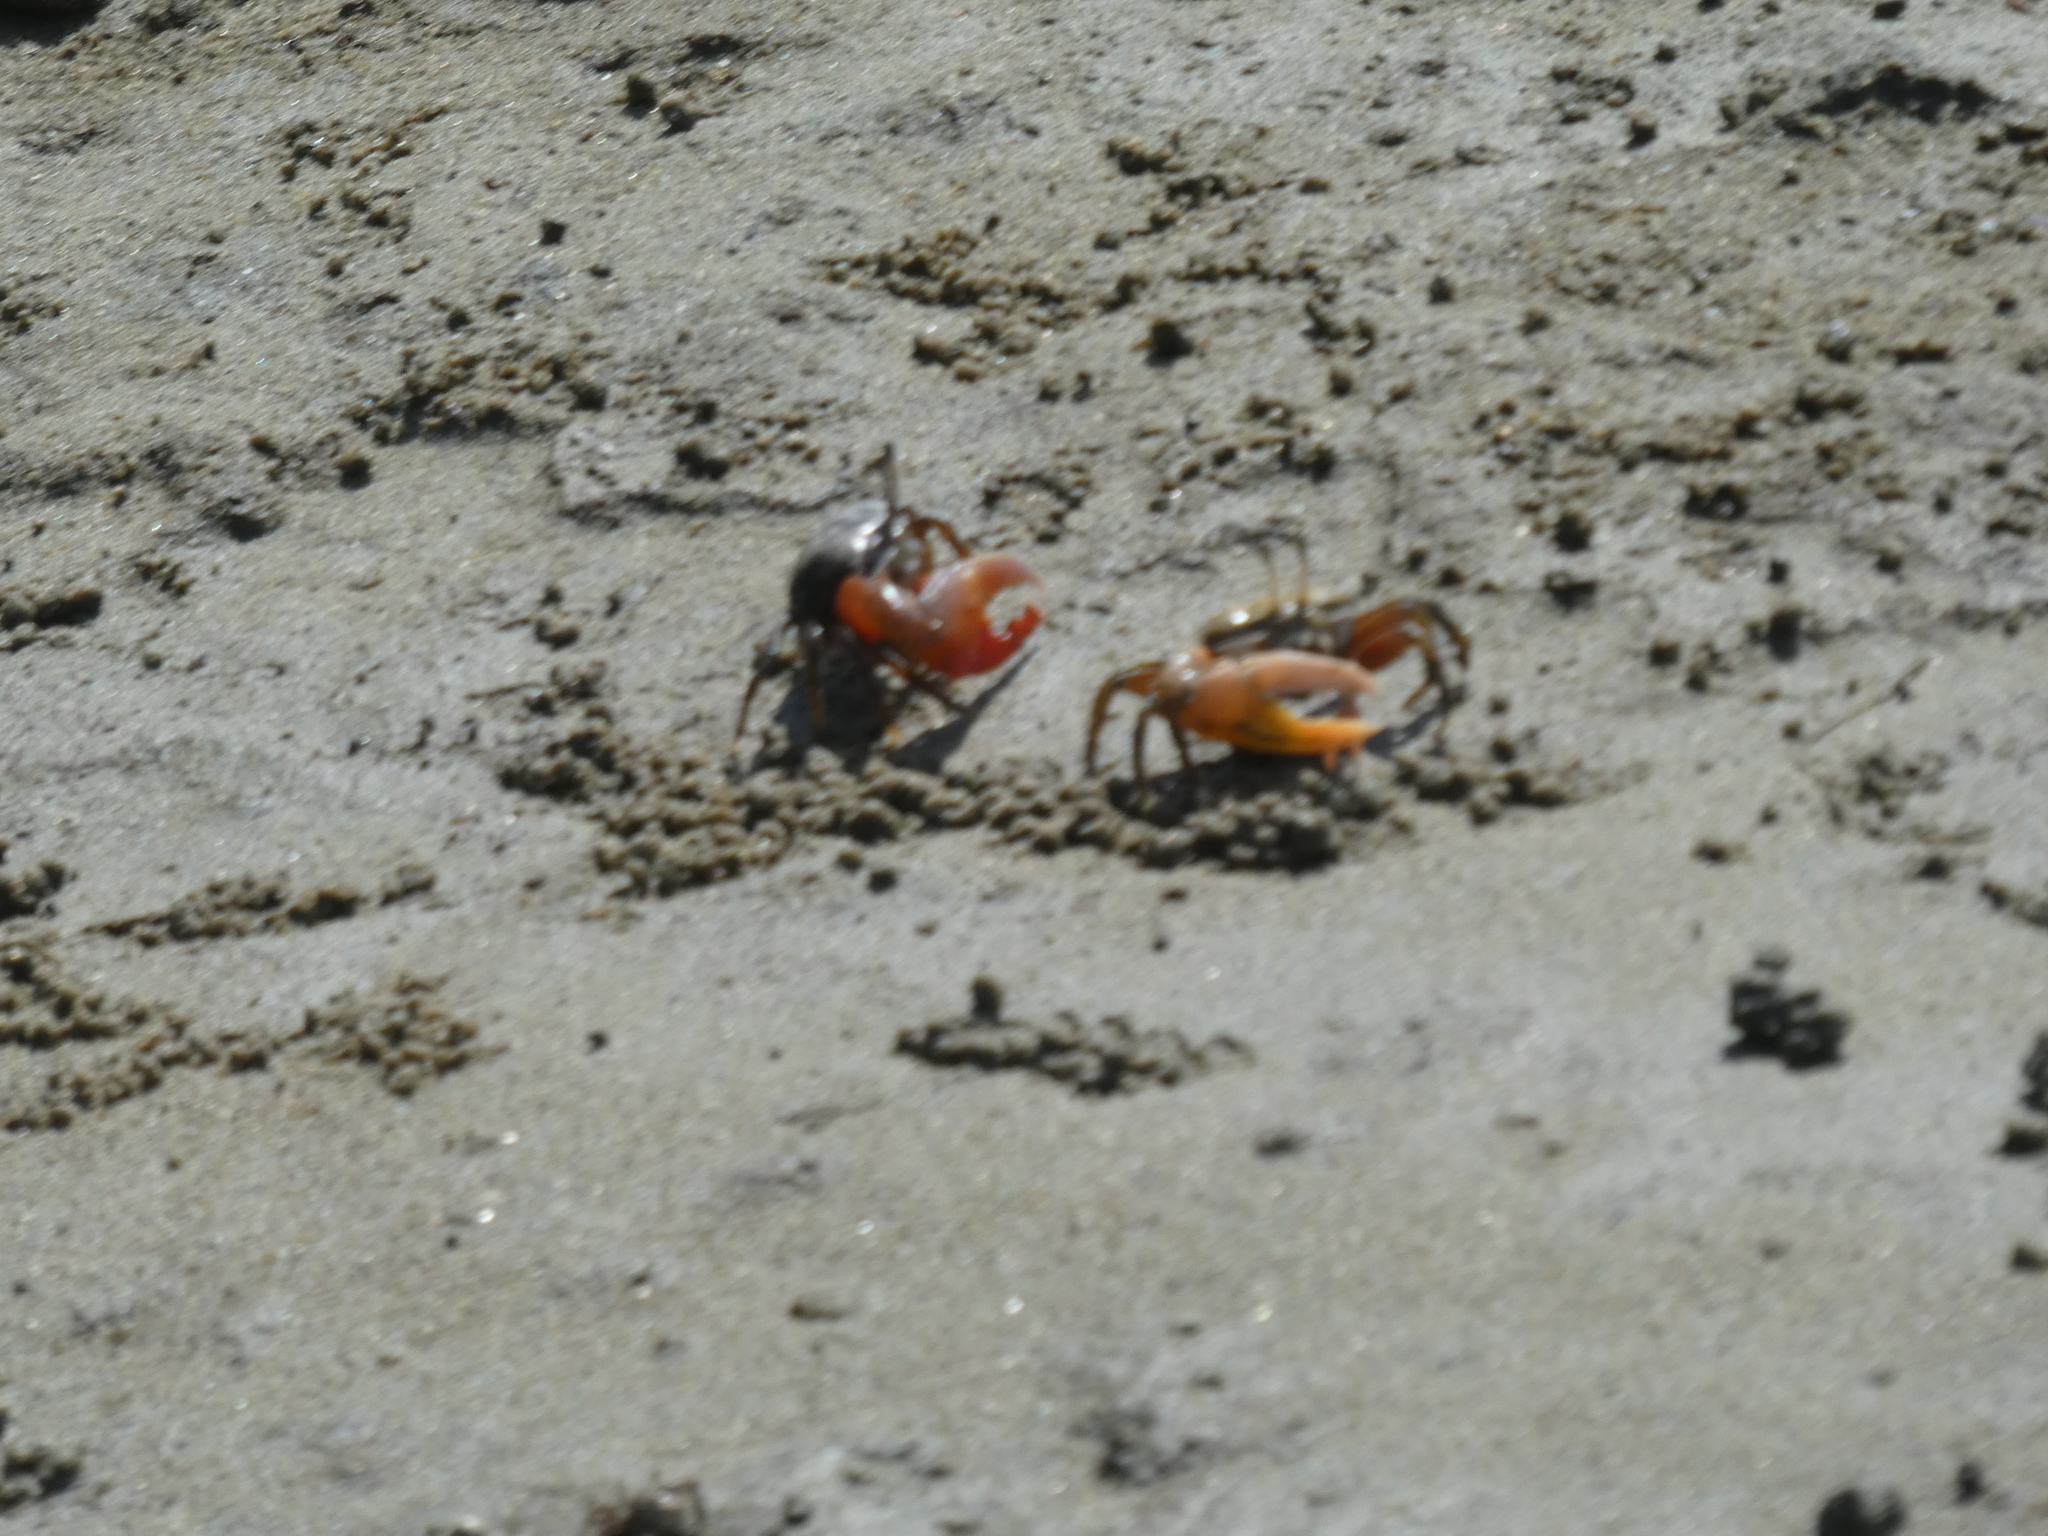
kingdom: Animalia
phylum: Arthropoda
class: Malacostraca
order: Decapoda
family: Ocypodidae
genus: Gelasimus
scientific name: Gelasimus vocans
